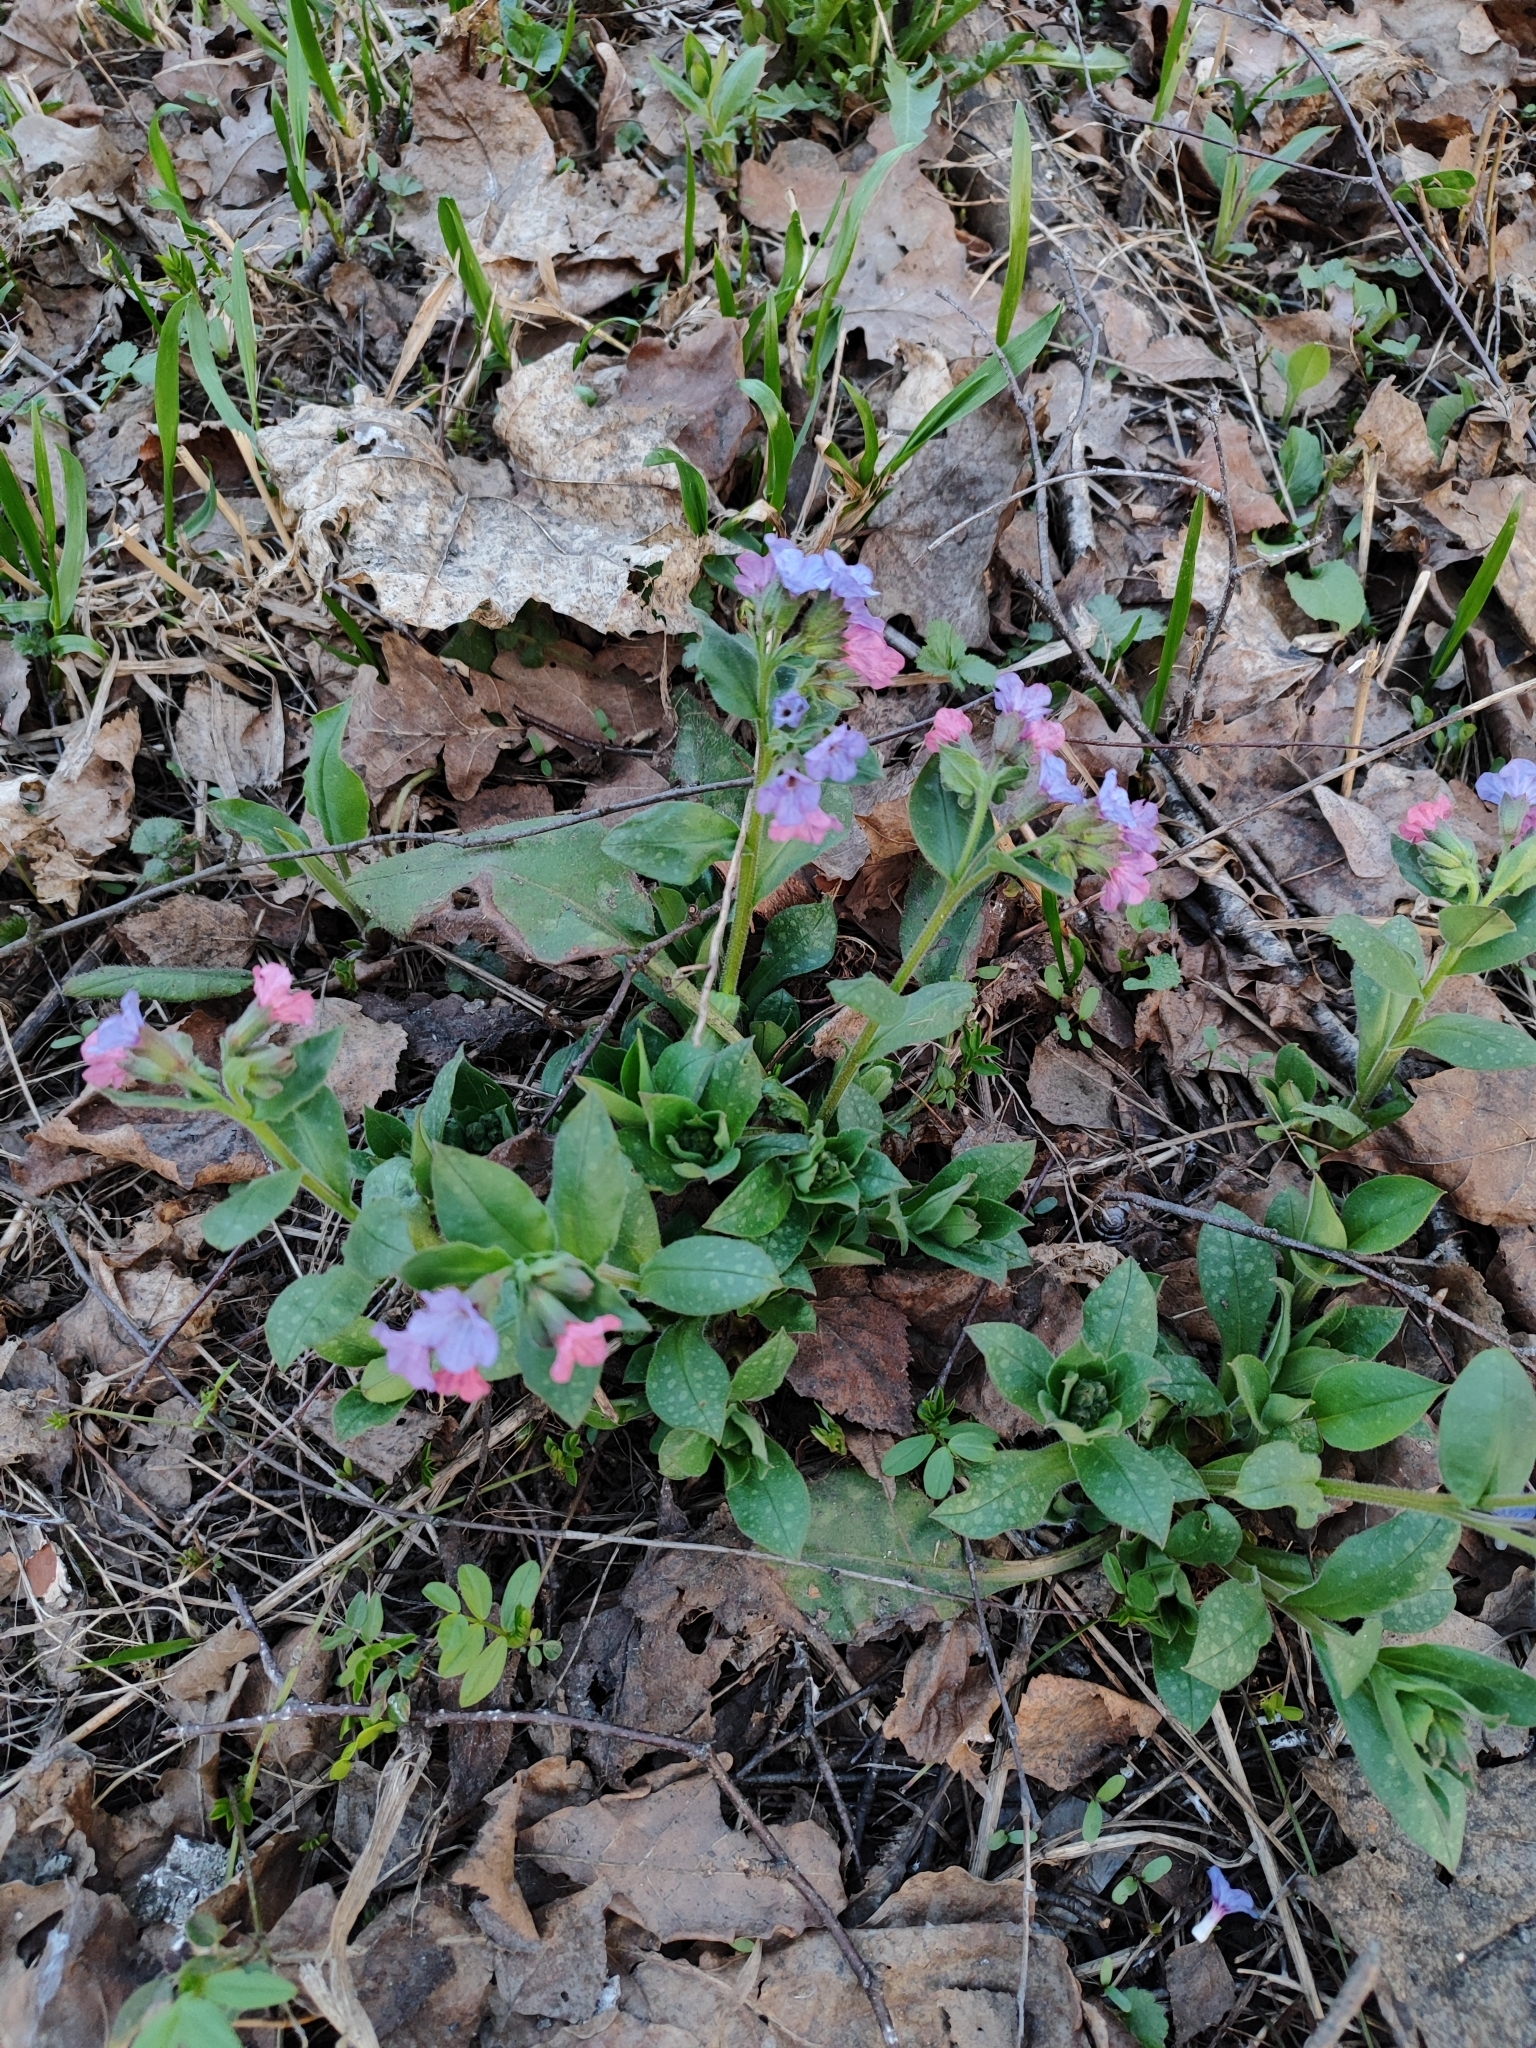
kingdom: Plantae
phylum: Tracheophyta
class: Magnoliopsida
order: Boraginales
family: Boraginaceae
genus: Pulmonaria
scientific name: Pulmonaria obscura
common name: Suffolk lungwort
